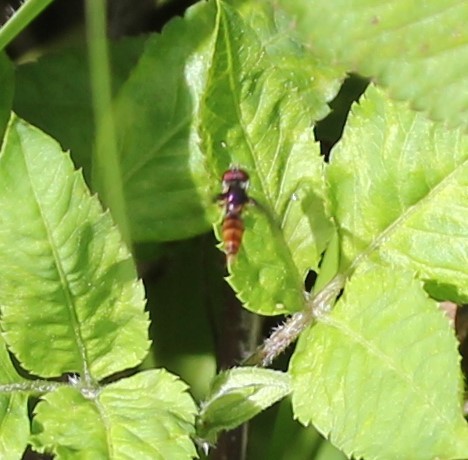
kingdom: Animalia
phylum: Arthropoda
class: Insecta
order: Diptera
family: Syrphidae
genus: Ocyptamus
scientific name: Ocyptamus fuscipennis
